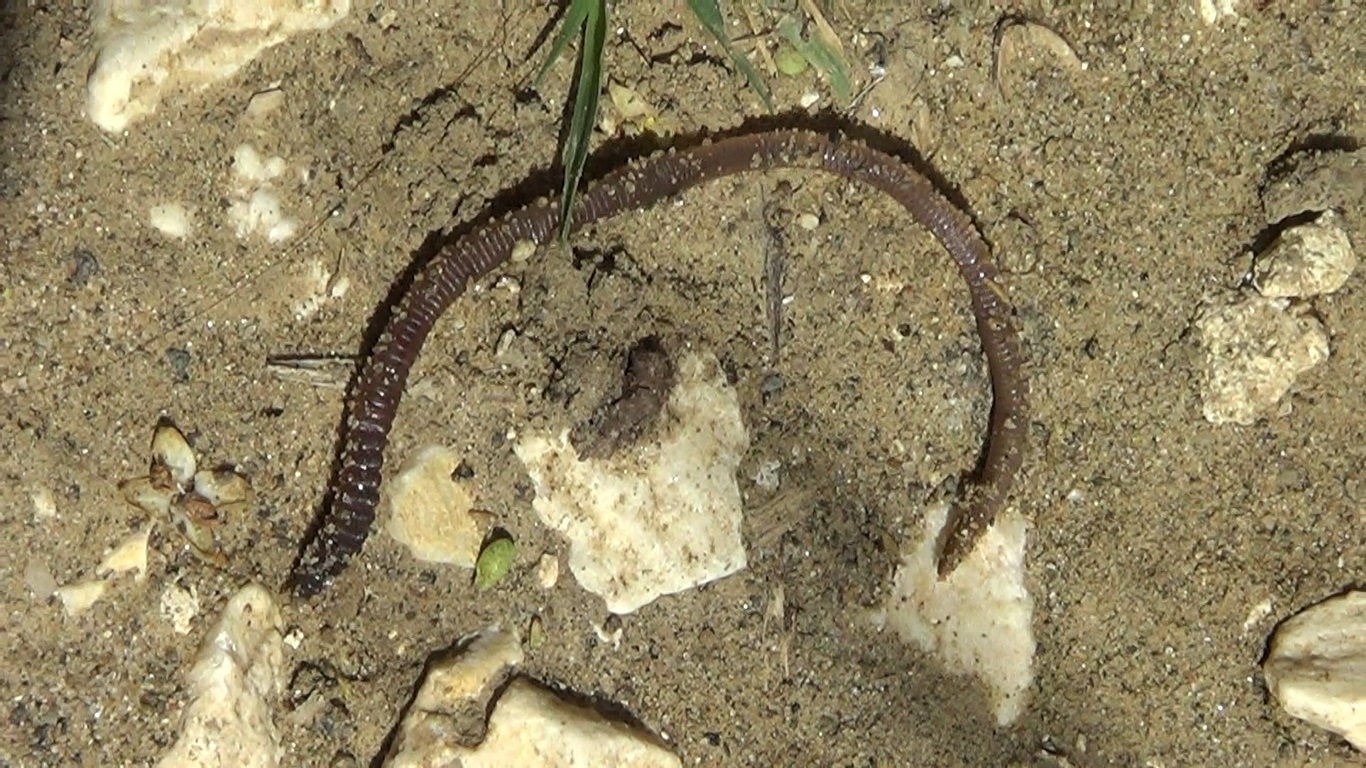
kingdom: Animalia
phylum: Annelida
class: Clitellata
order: Crassiclitellata
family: Lumbricidae
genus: Lumbricus
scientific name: Lumbricus terrestris
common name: Common earthworm
